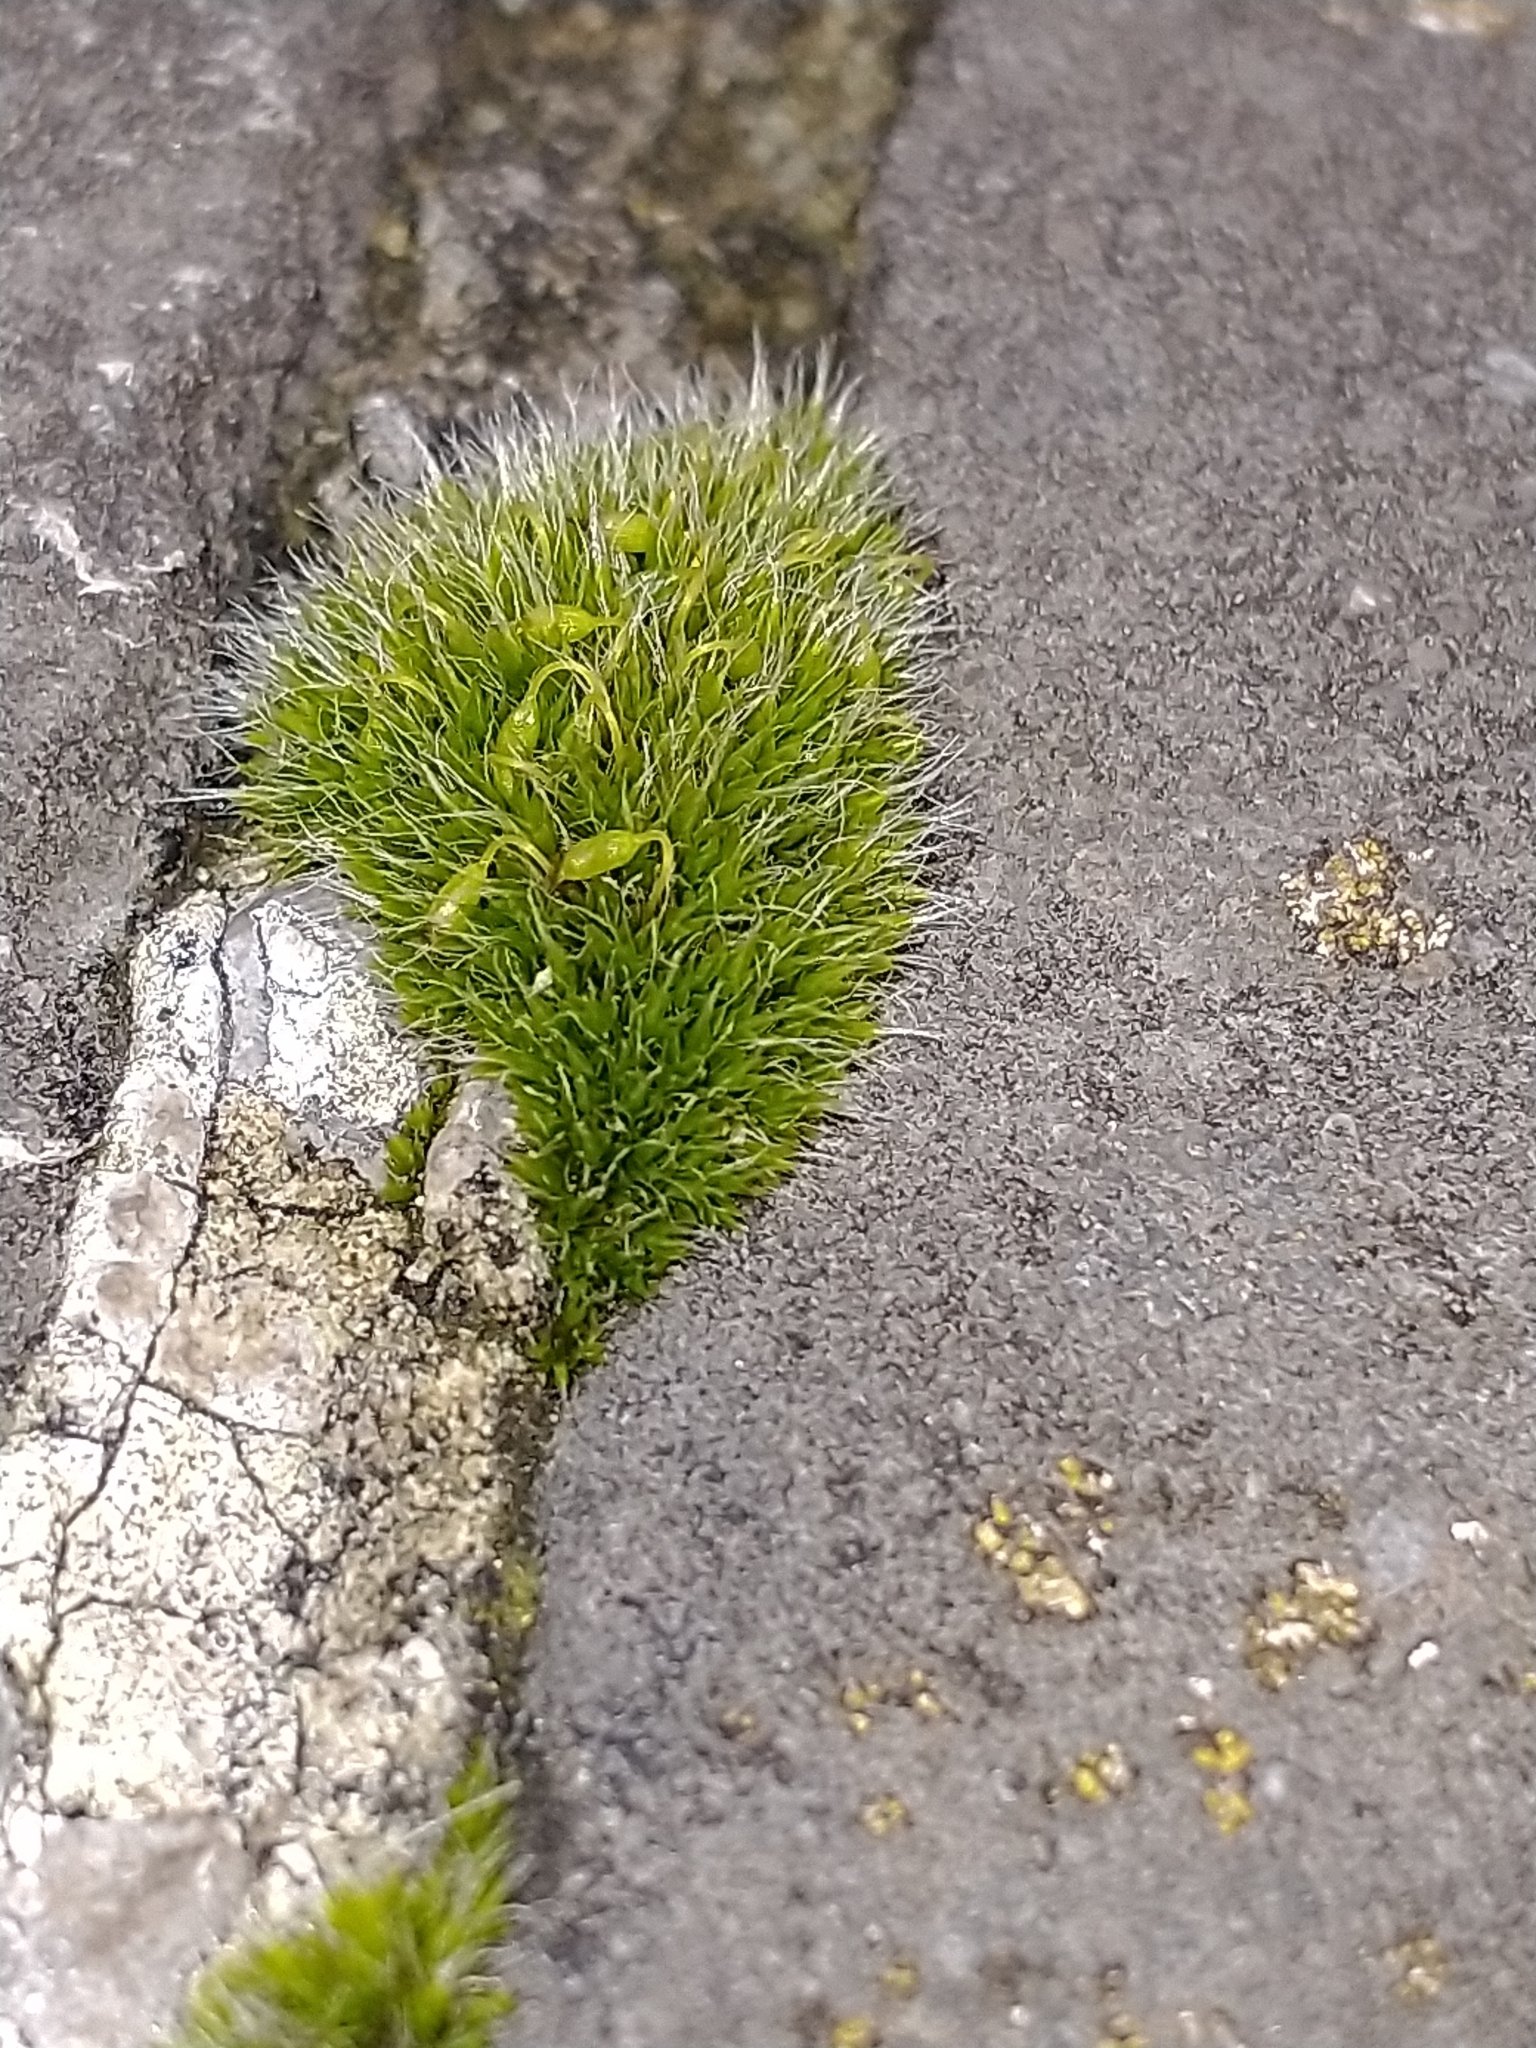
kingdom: Plantae
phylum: Bryophyta
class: Bryopsida
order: Grimmiales
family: Grimmiaceae
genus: Grimmia
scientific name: Grimmia pulvinata
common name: Grey-cushioned grimmia
